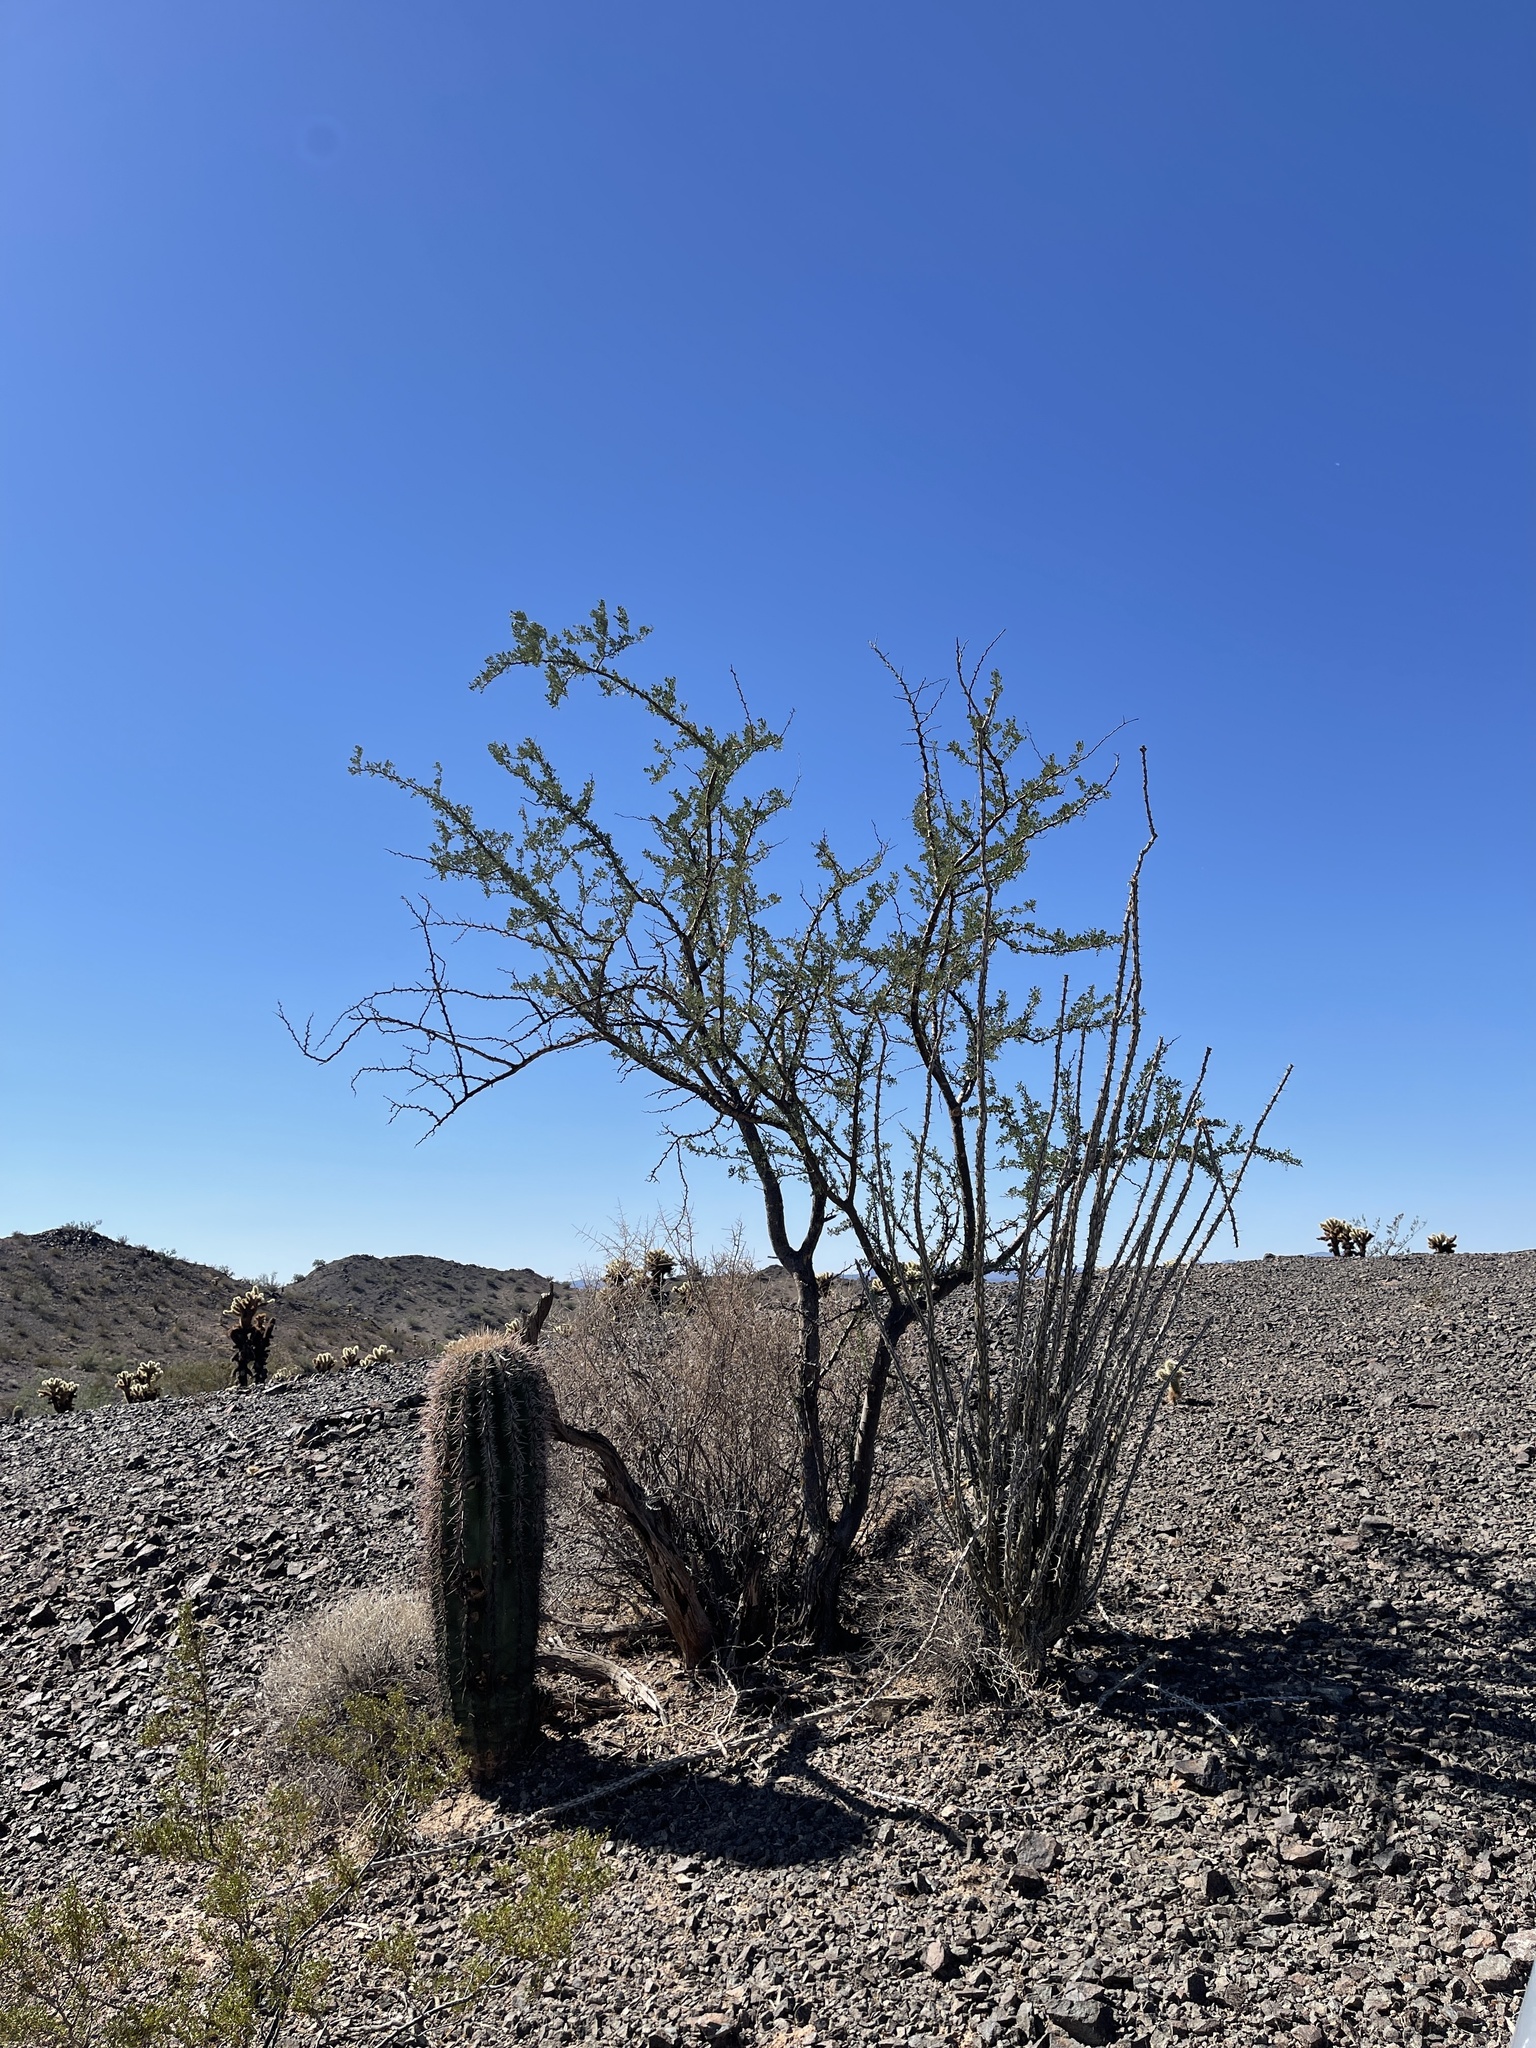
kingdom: Plantae
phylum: Tracheophyta
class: Magnoliopsida
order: Caryophyllales
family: Cactaceae
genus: Carnegiea
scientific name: Carnegiea gigantea
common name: Saguaro
